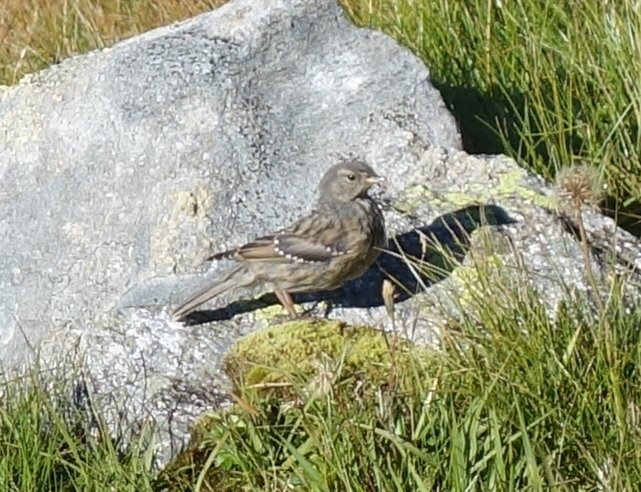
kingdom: Animalia
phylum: Chordata
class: Aves
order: Passeriformes
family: Prunellidae
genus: Prunella
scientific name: Prunella collaris
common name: Alpine accentor
